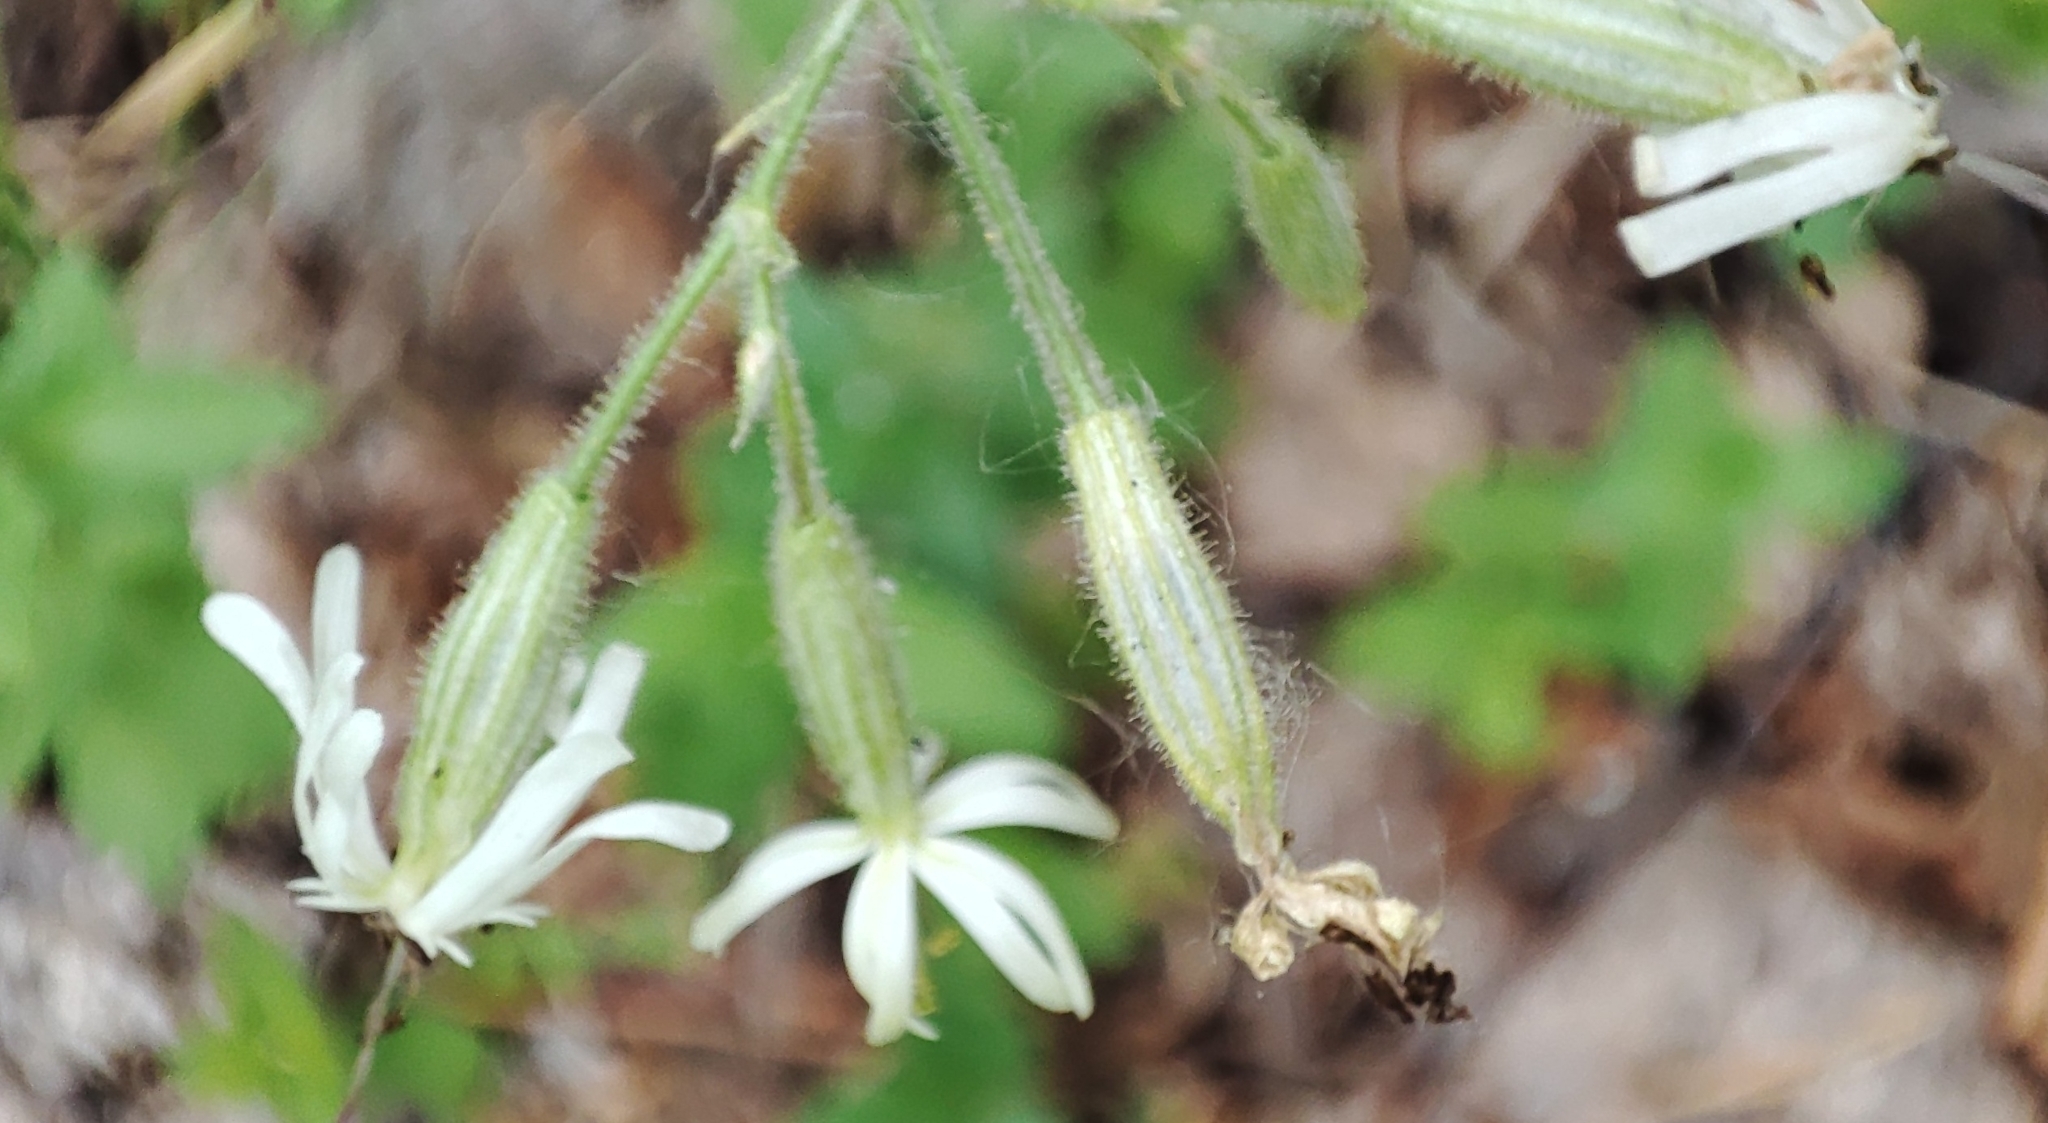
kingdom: Plantae
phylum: Tracheophyta
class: Magnoliopsida
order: Caryophyllales
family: Caryophyllaceae
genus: Silene
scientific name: Silene nutans
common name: Nottingham catchfly
